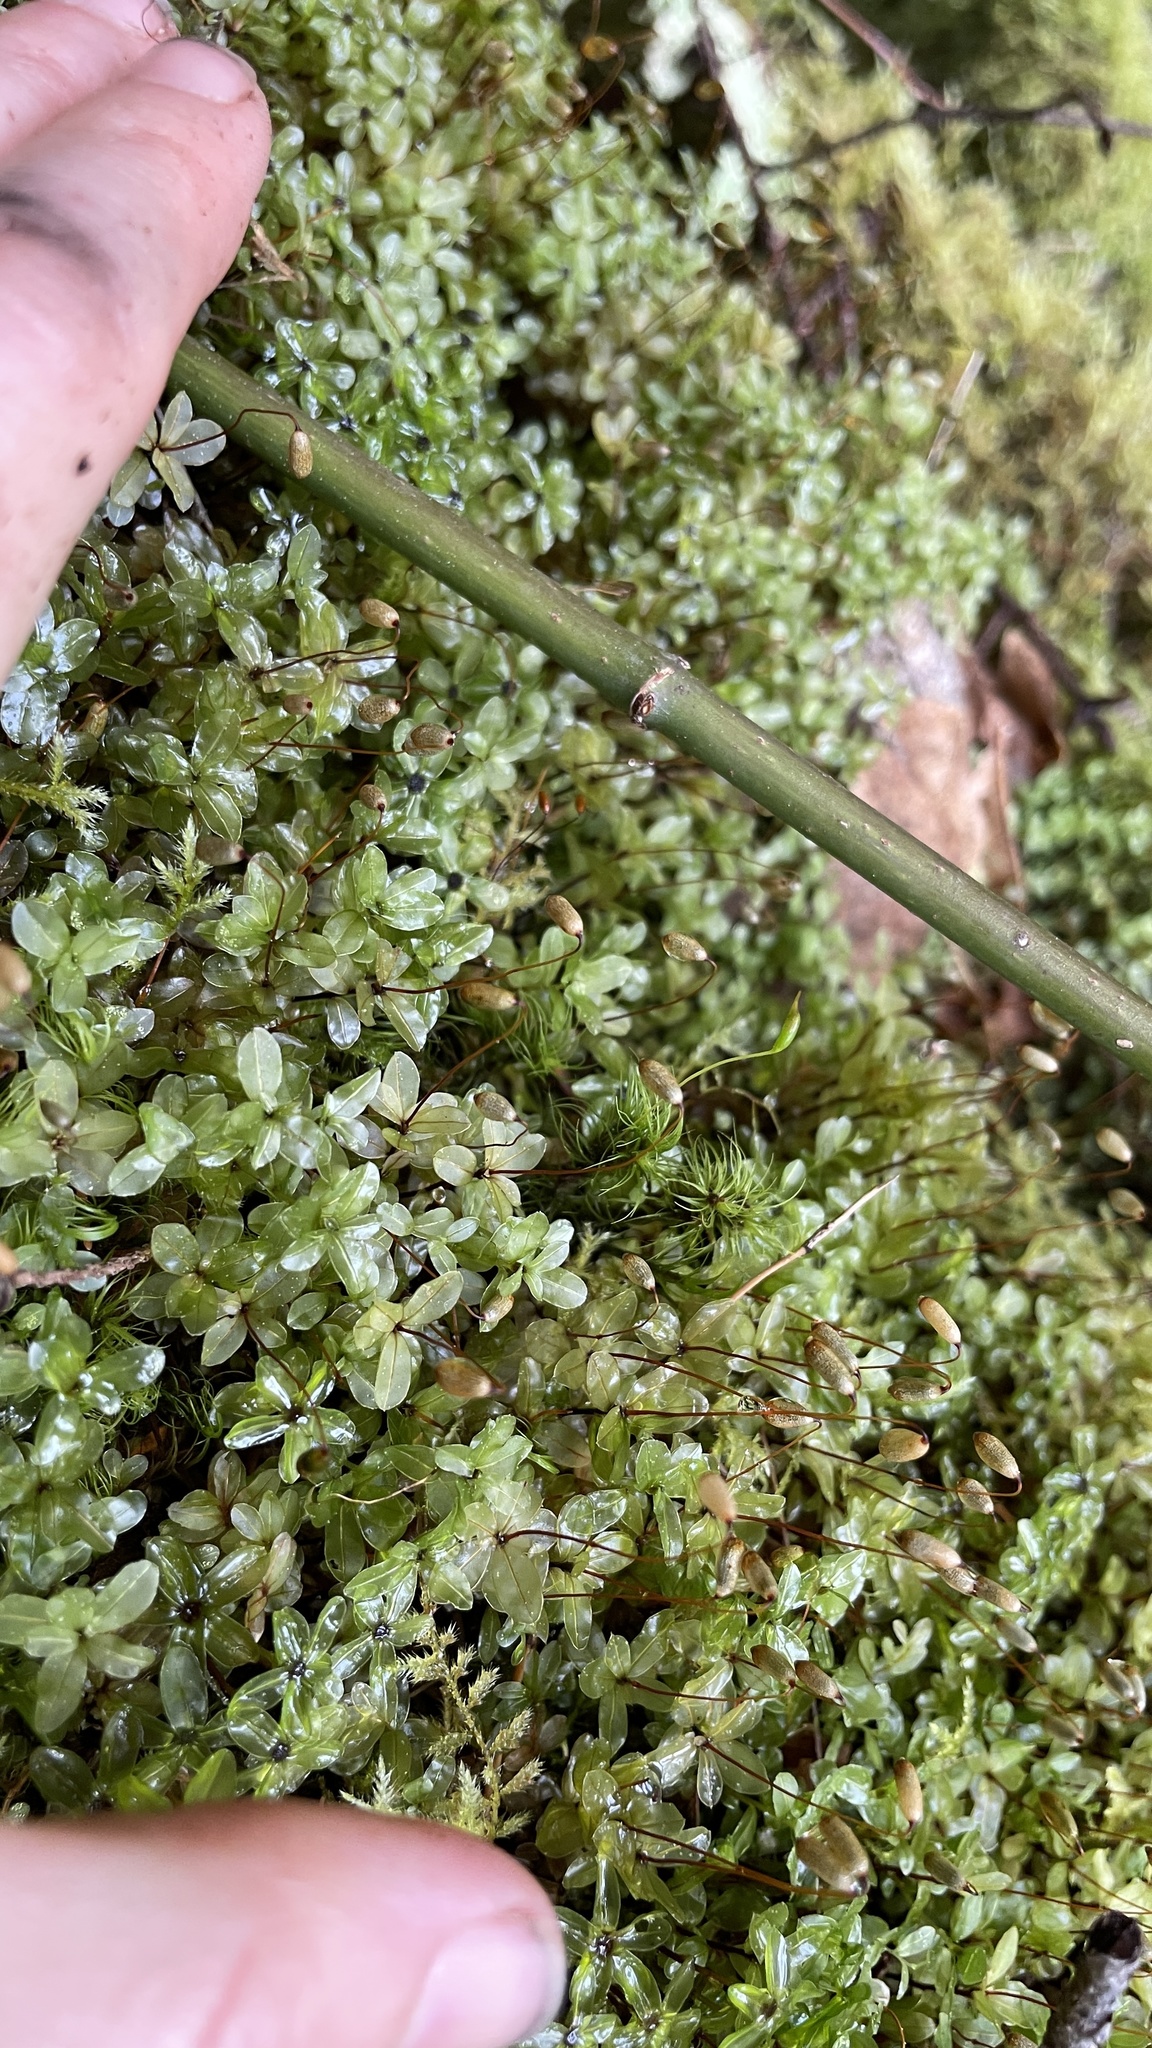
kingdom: Plantae
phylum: Bryophyta
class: Bryopsida
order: Bryales
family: Mniaceae
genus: Rhizomnium
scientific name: Rhizomnium glabrescens
